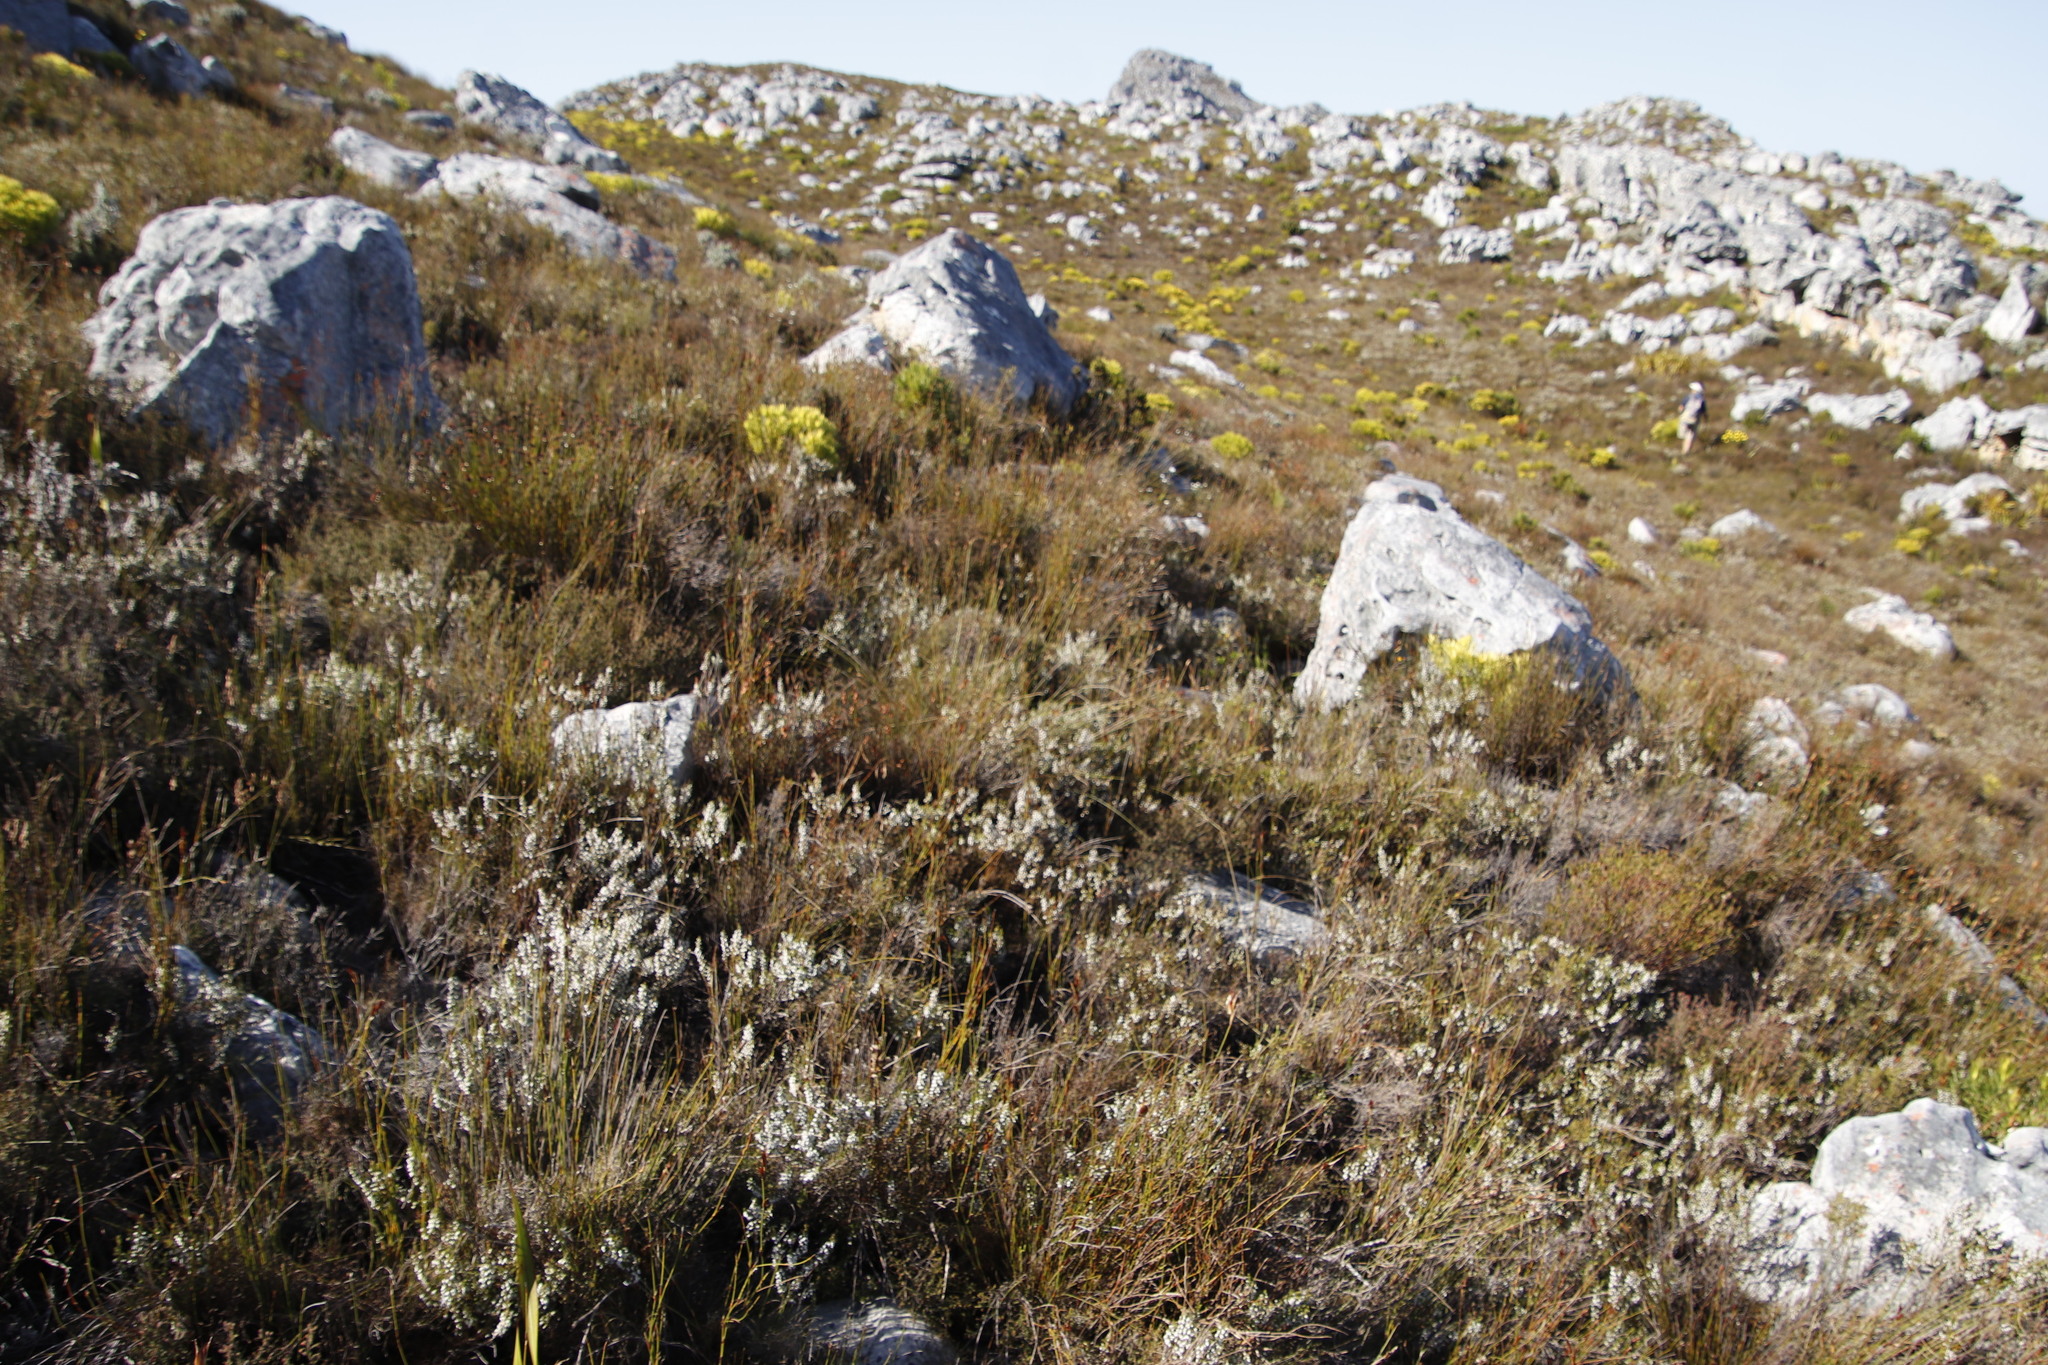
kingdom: Plantae
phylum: Tracheophyta
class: Magnoliopsida
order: Ericales
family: Ericaceae
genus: Erica
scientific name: Erica imbricata
